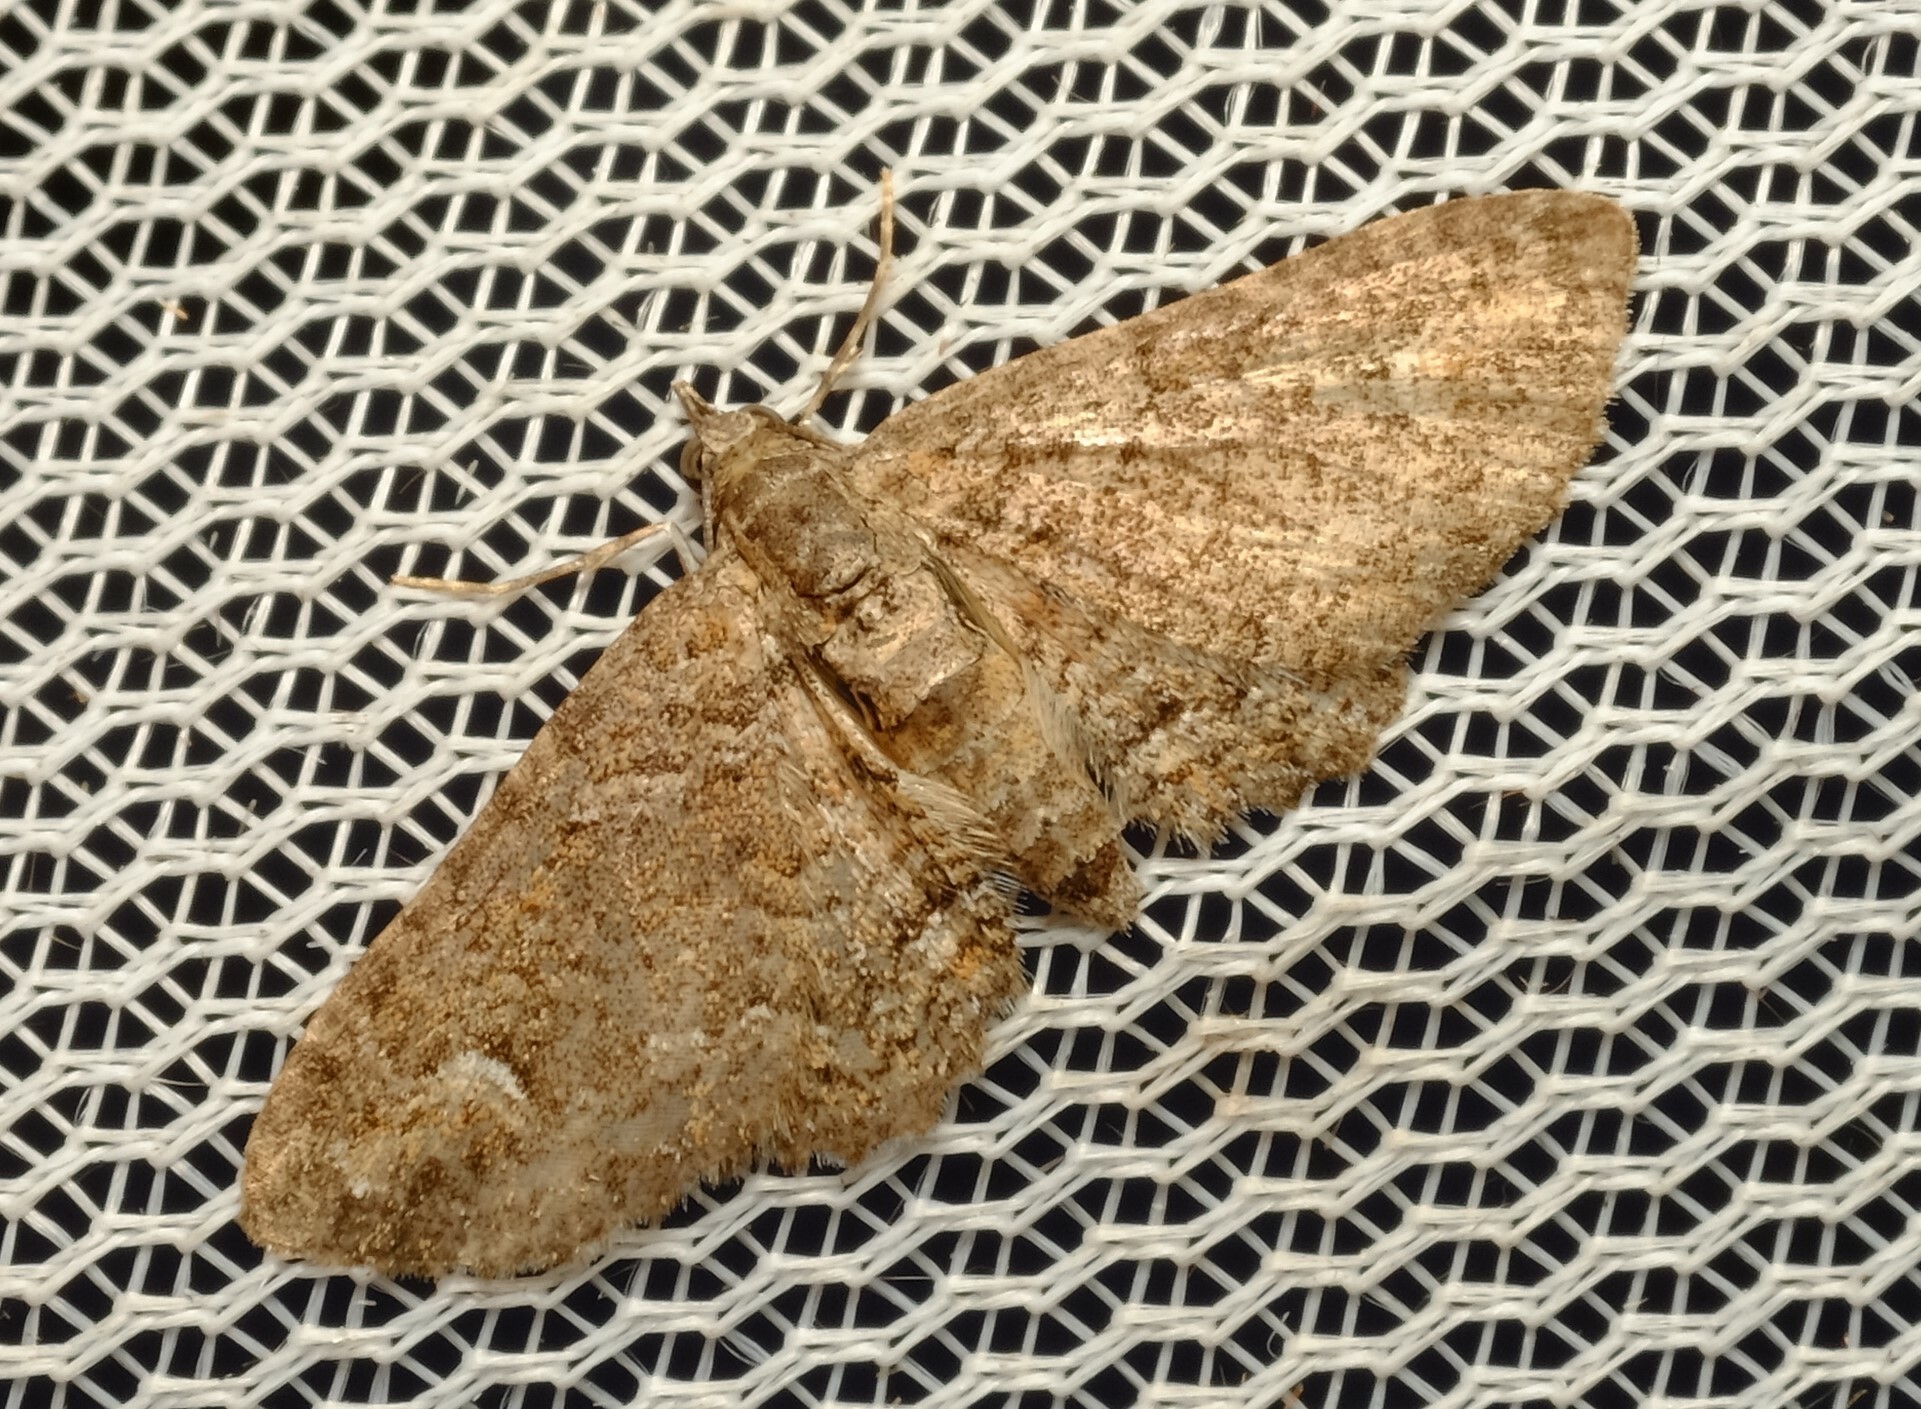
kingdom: Animalia
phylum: Arthropoda
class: Insecta
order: Lepidoptera
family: Geometridae
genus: Pasiphilodes
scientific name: Pasiphilodes testulata
